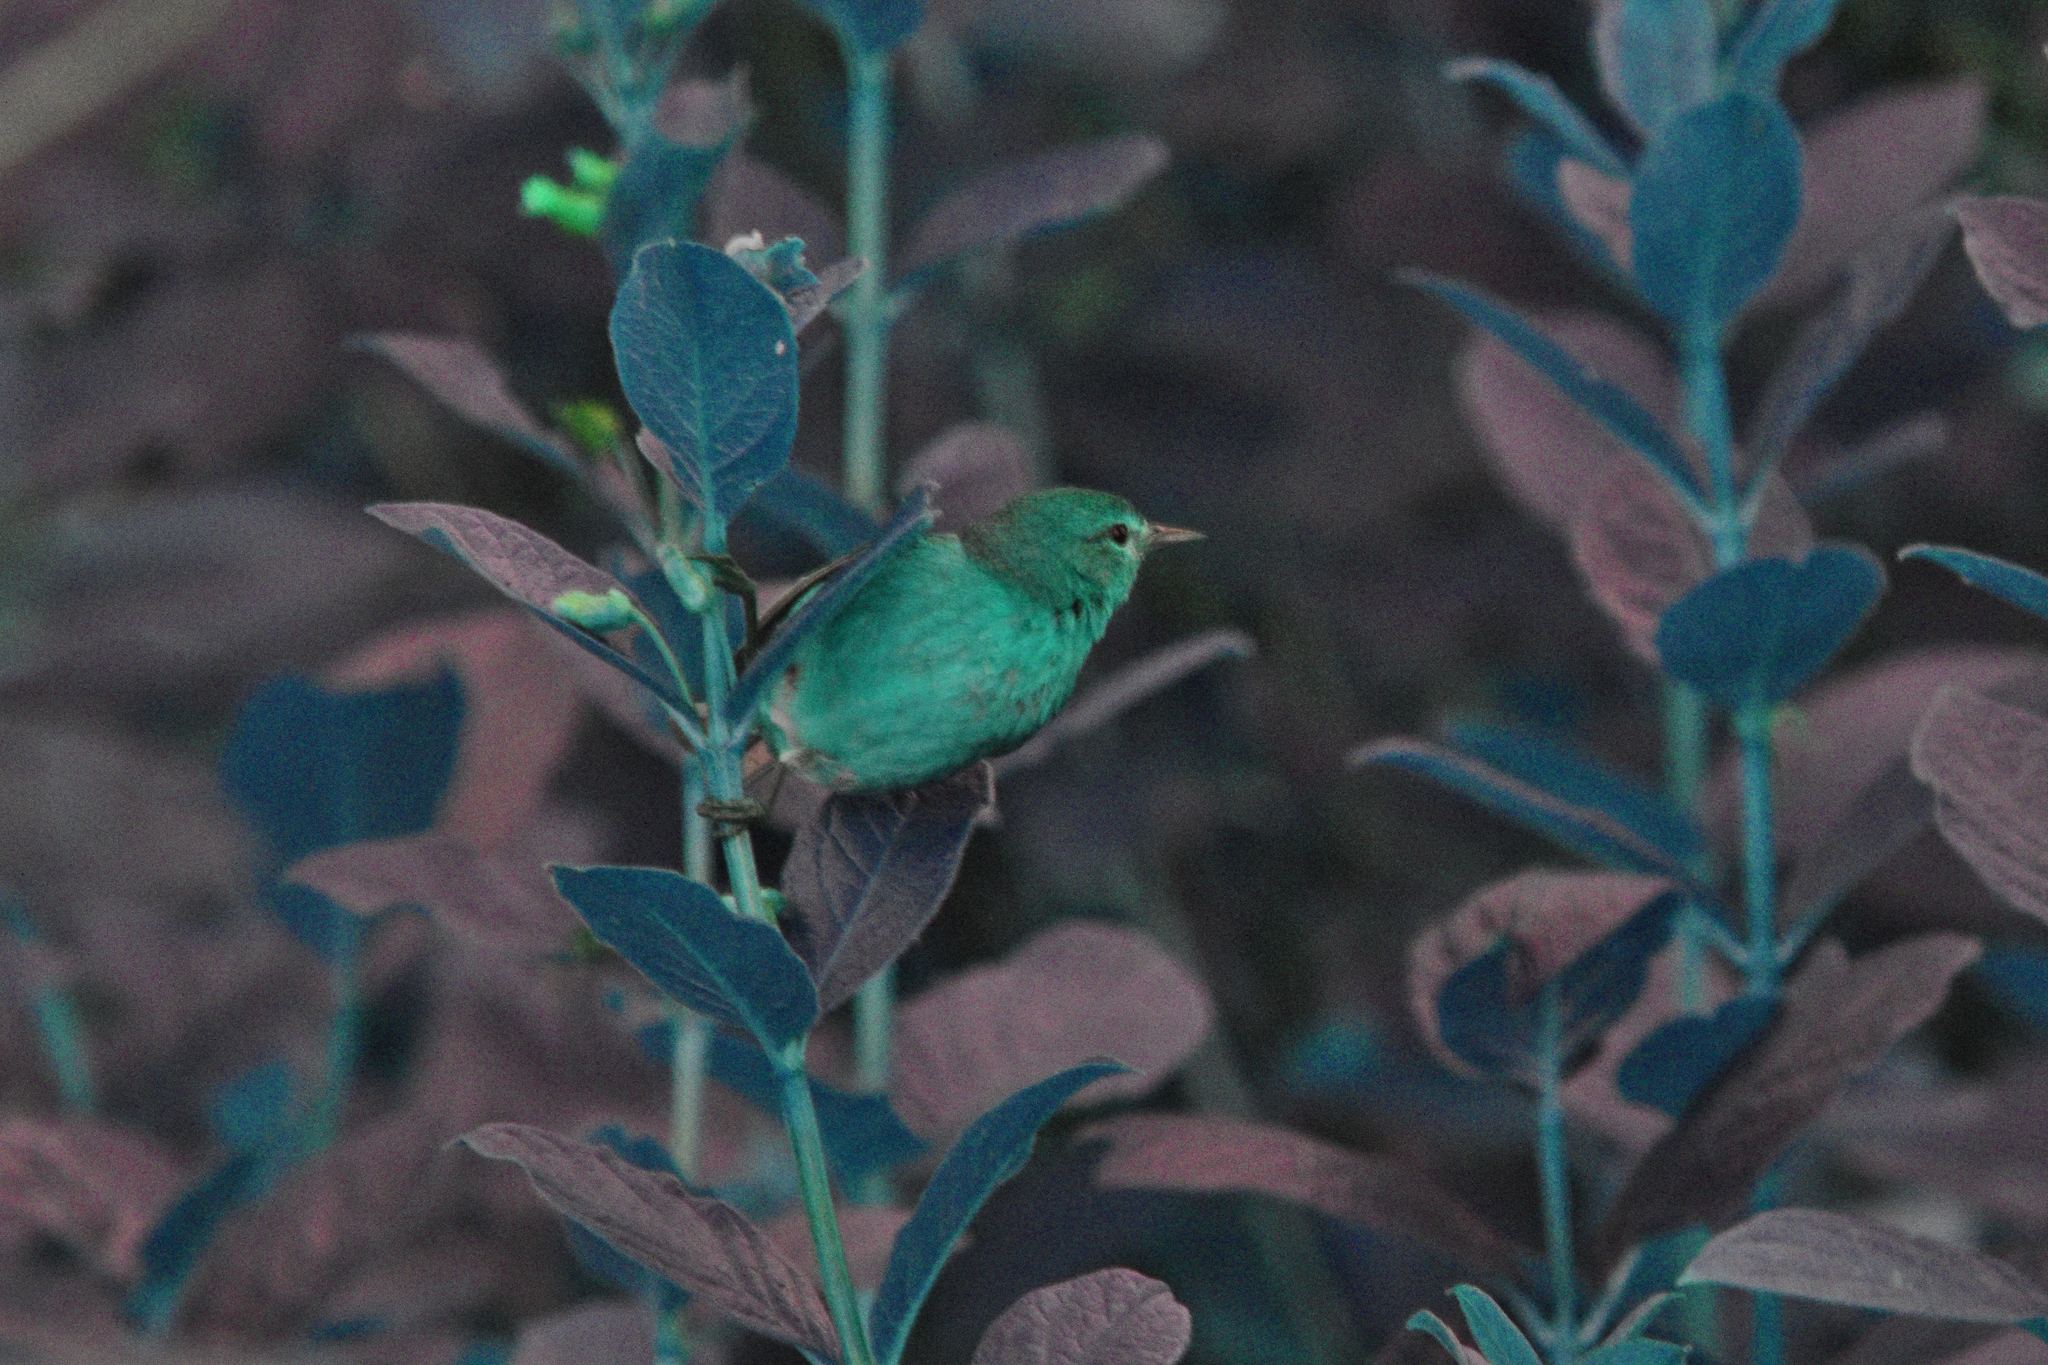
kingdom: Animalia
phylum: Chordata
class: Aves
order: Passeriformes
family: Parulidae
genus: Leiothlypis
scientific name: Leiothlypis celata
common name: Orange-crowned warbler
